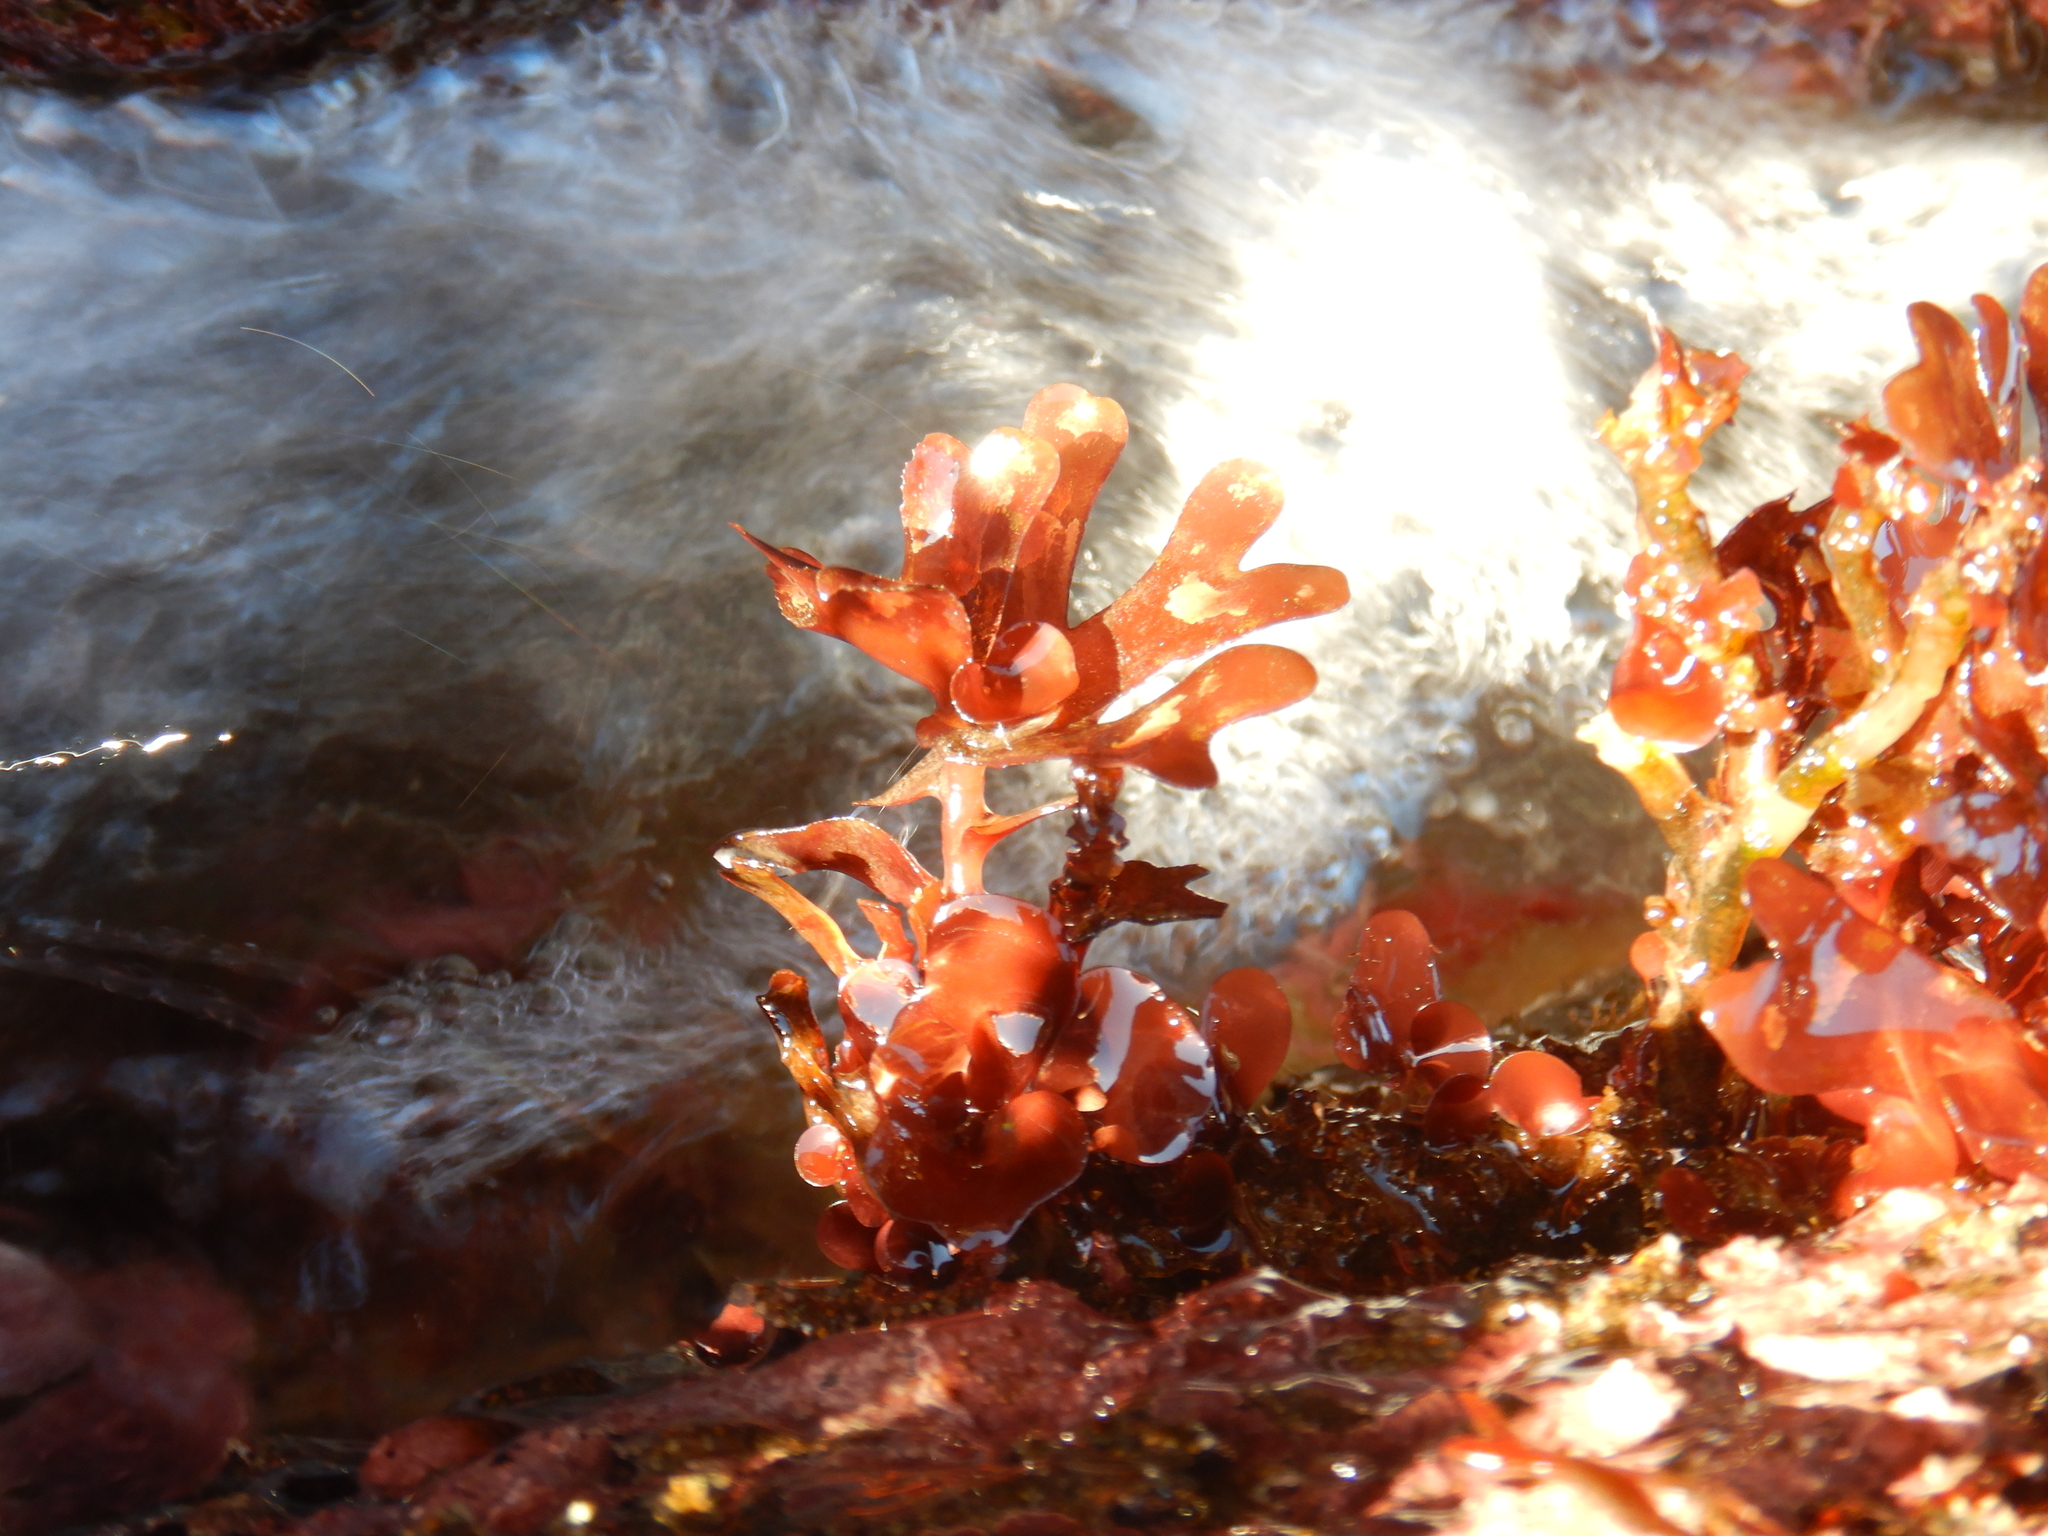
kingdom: Plantae
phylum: Rhodophyta
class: Florideophyceae
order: Rhodymeniales
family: Rhodymeniaceae
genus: Rhodymenia
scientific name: Rhodymenia skottsbergi
